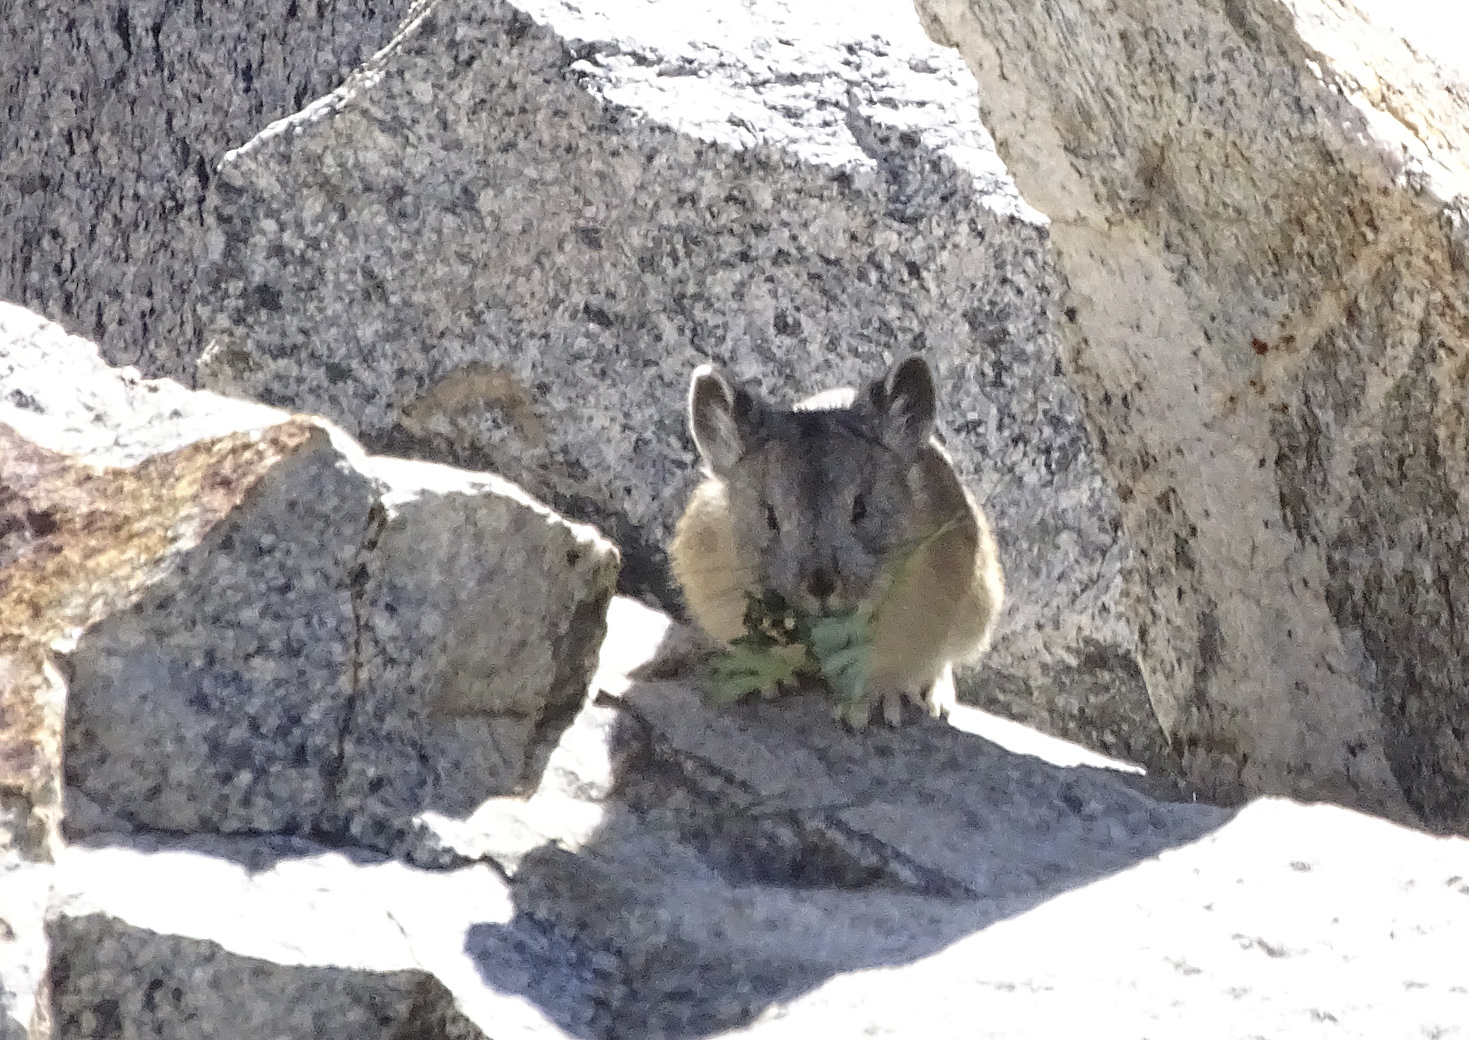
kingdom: Animalia
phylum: Chordata
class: Mammalia
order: Lagomorpha
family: Ochotonidae
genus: Ochotona
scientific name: Ochotona princeps
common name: American pika
